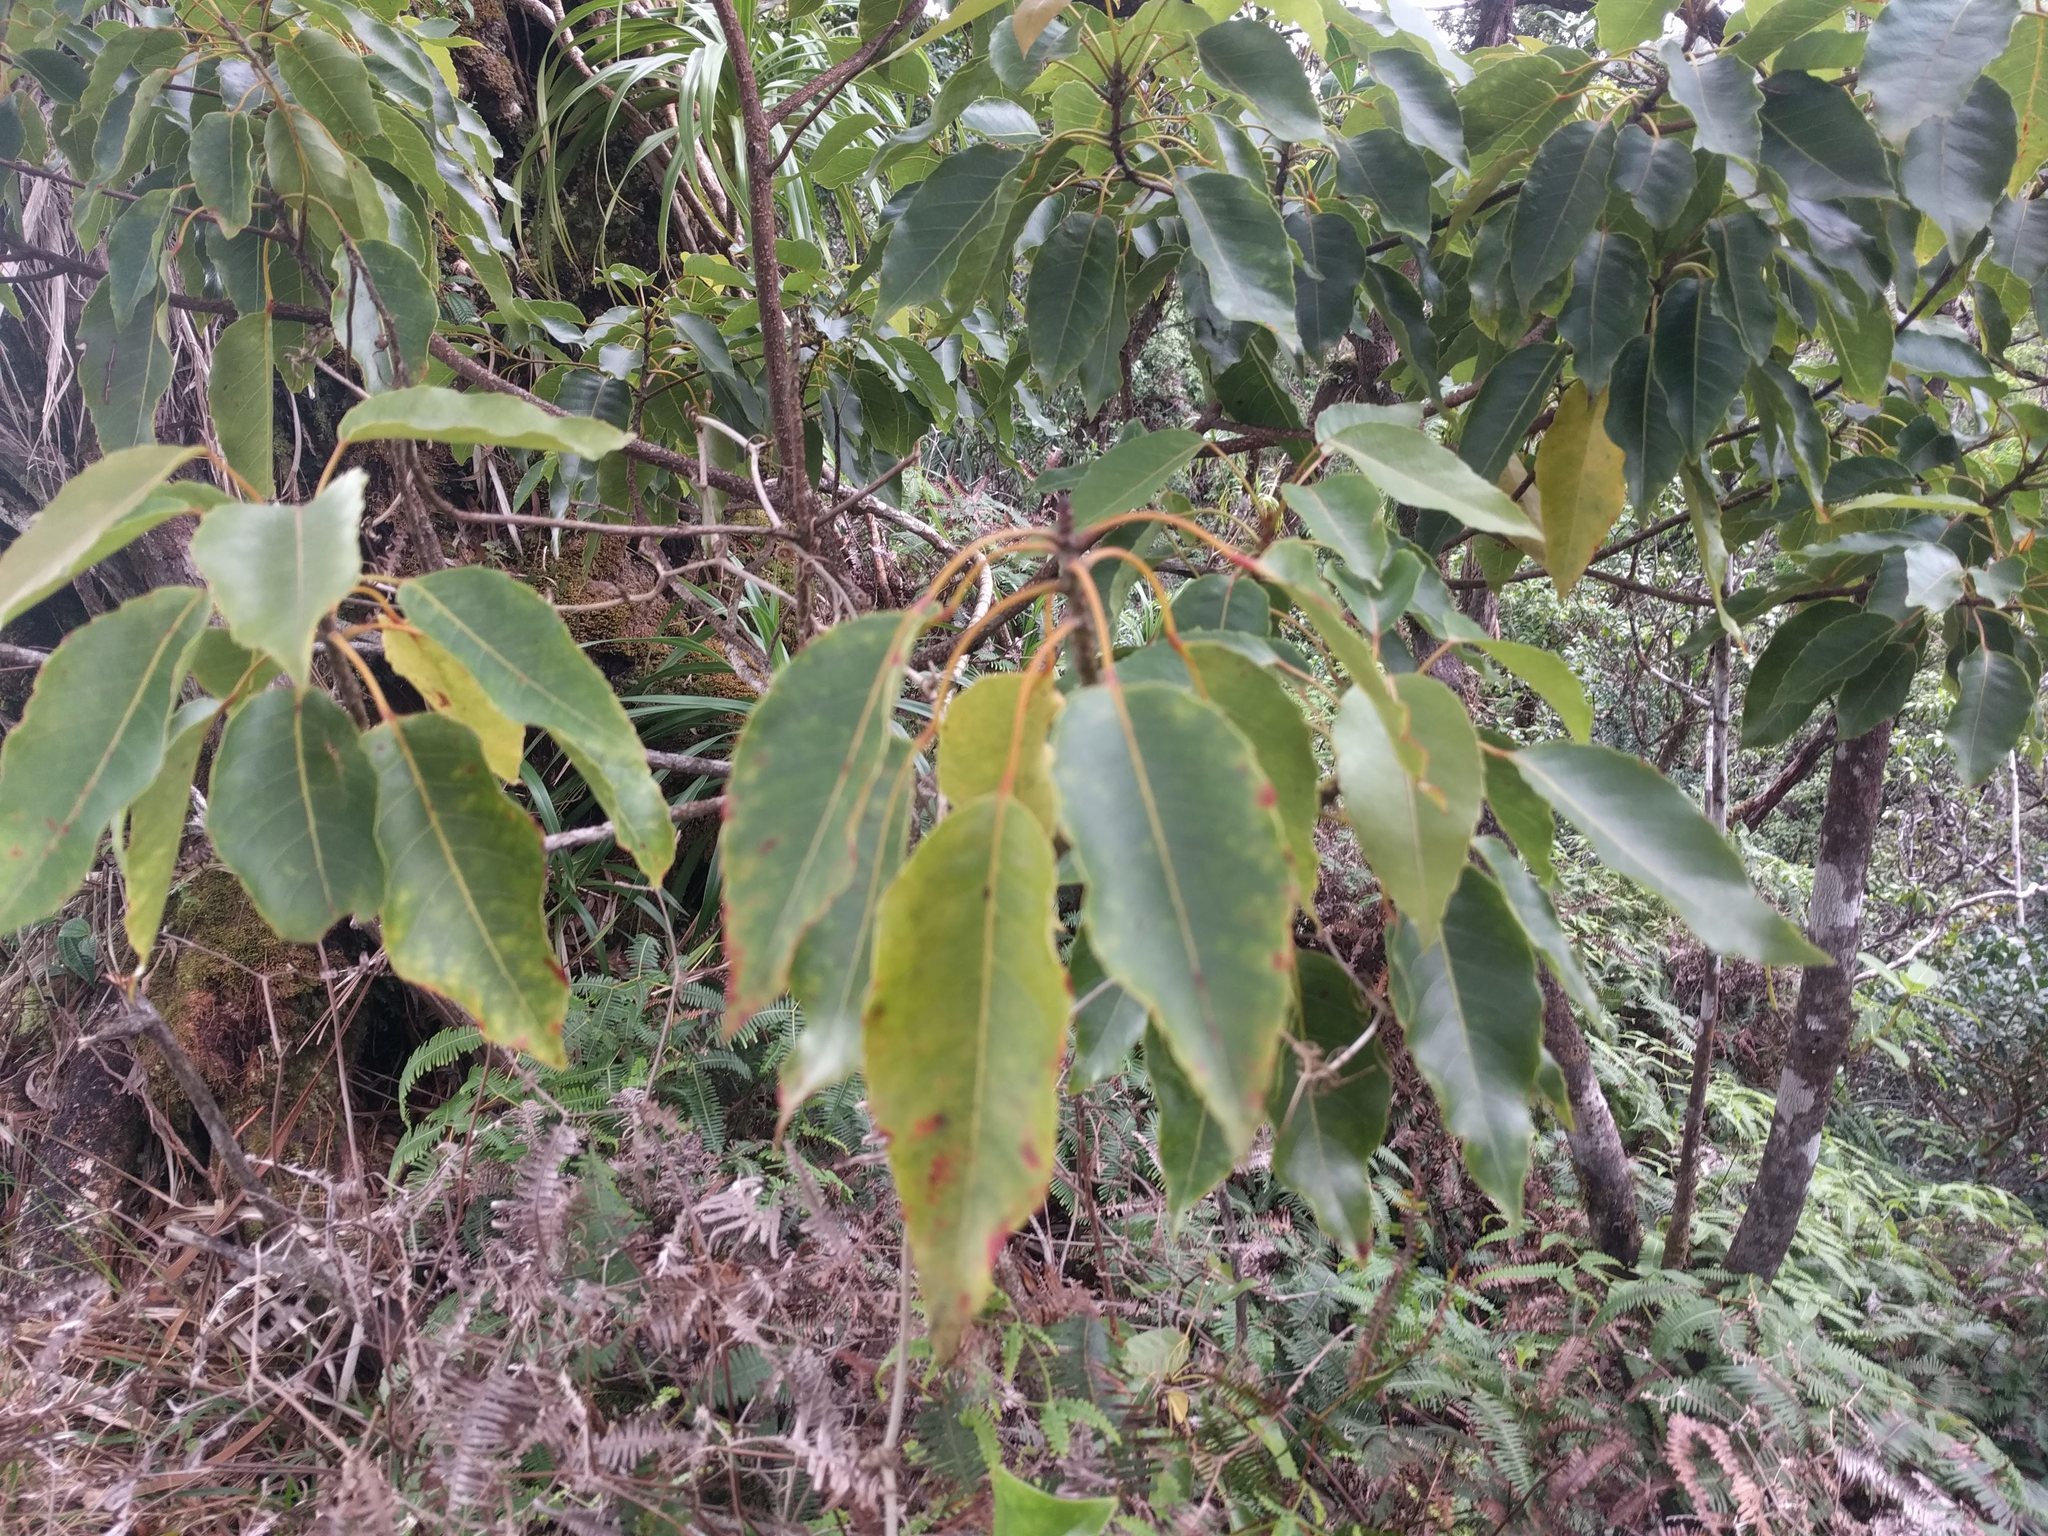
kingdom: Plantae
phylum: Tracheophyta
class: Magnoliopsida
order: Oxalidales
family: Elaeocarpaceae
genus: Elaeocarpus
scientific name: Elaeocarpus bifidus
